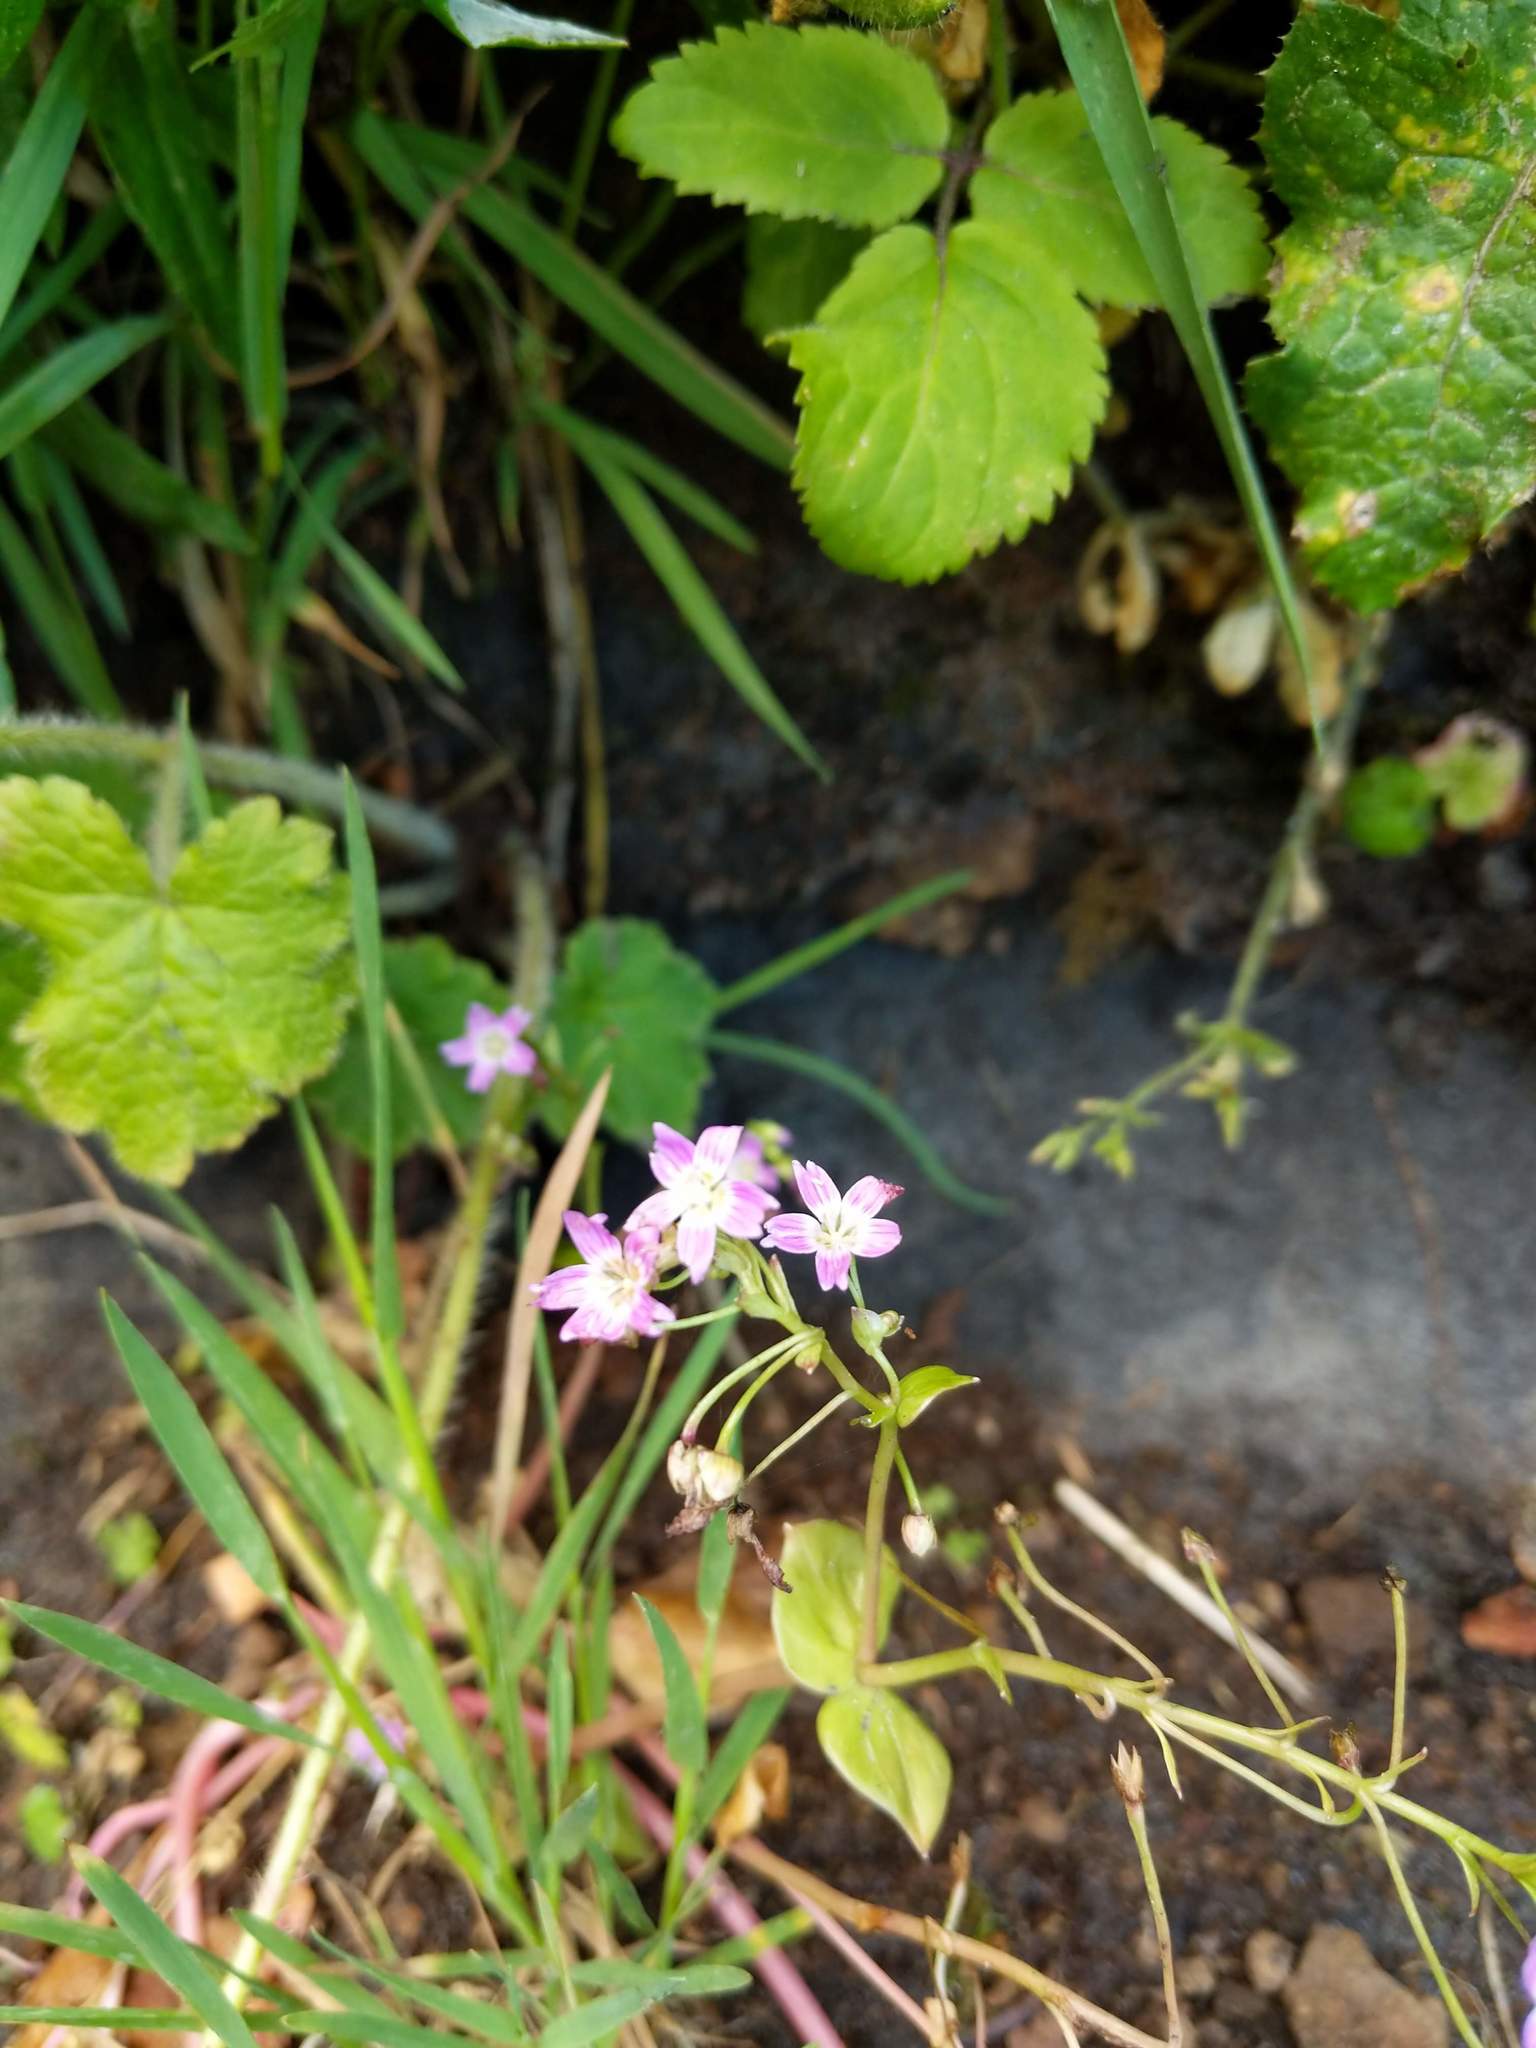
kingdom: Plantae
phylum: Tracheophyta
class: Magnoliopsida
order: Caryophyllales
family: Montiaceae
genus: Claytonia
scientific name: Claytonia sibirica
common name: Pink purslane
